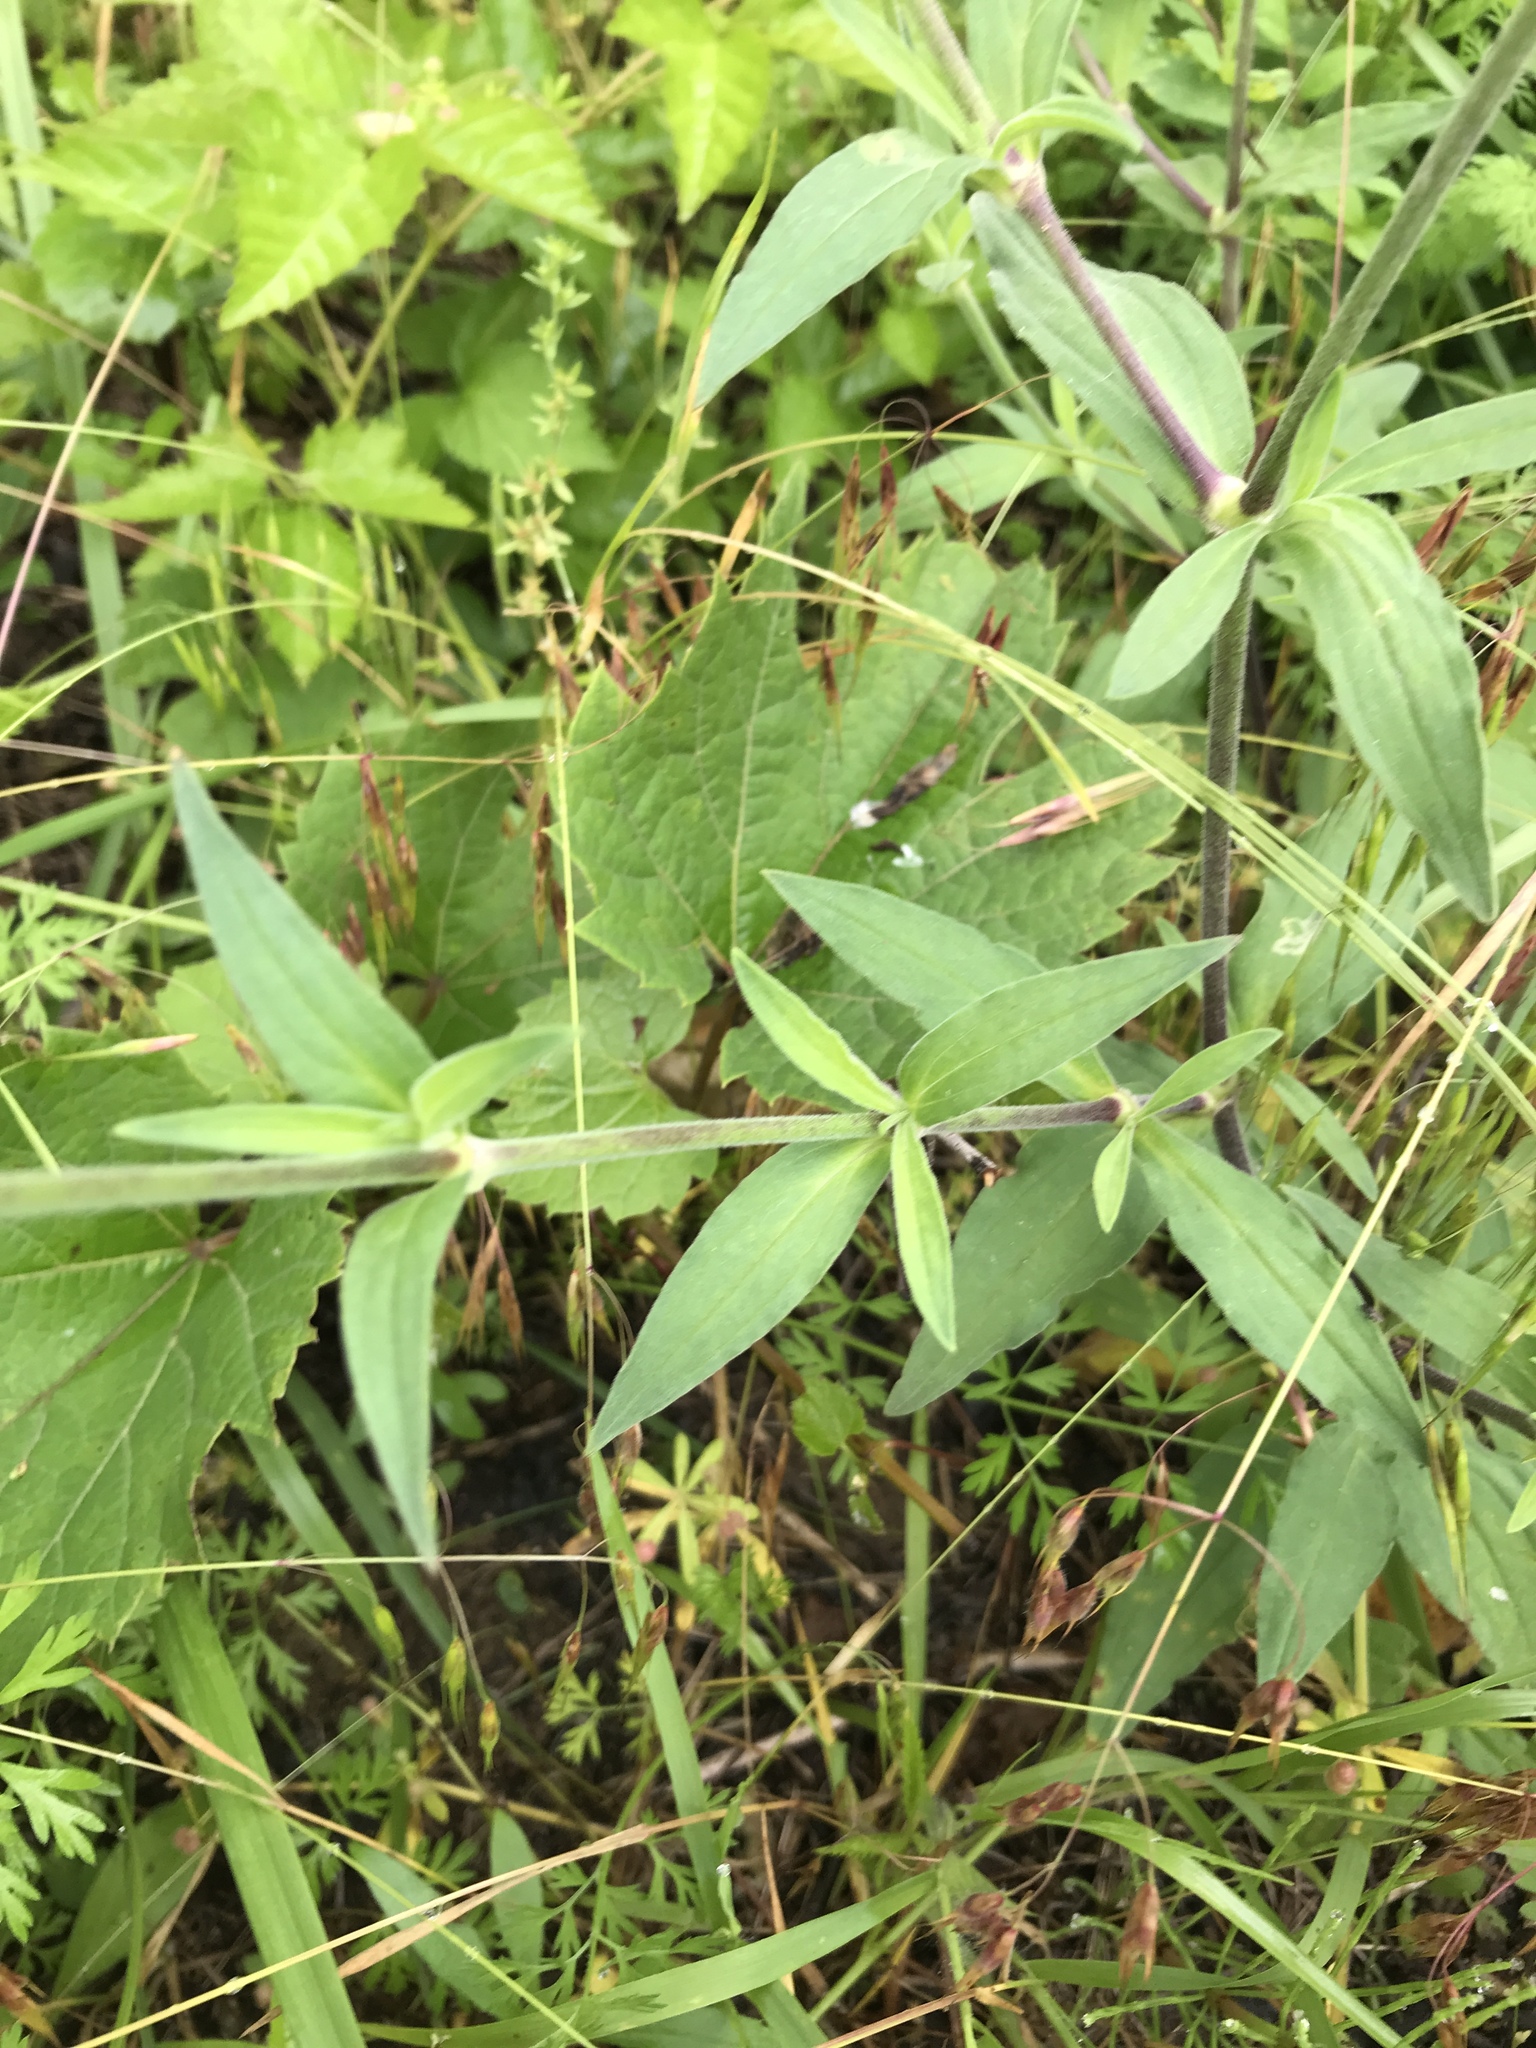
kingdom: Plantae
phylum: Tracheophyta
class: Magnoliopsida
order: Caryophyllales
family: Caryophyllaceae
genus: Silene
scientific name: Silene latifolia
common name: White campion
